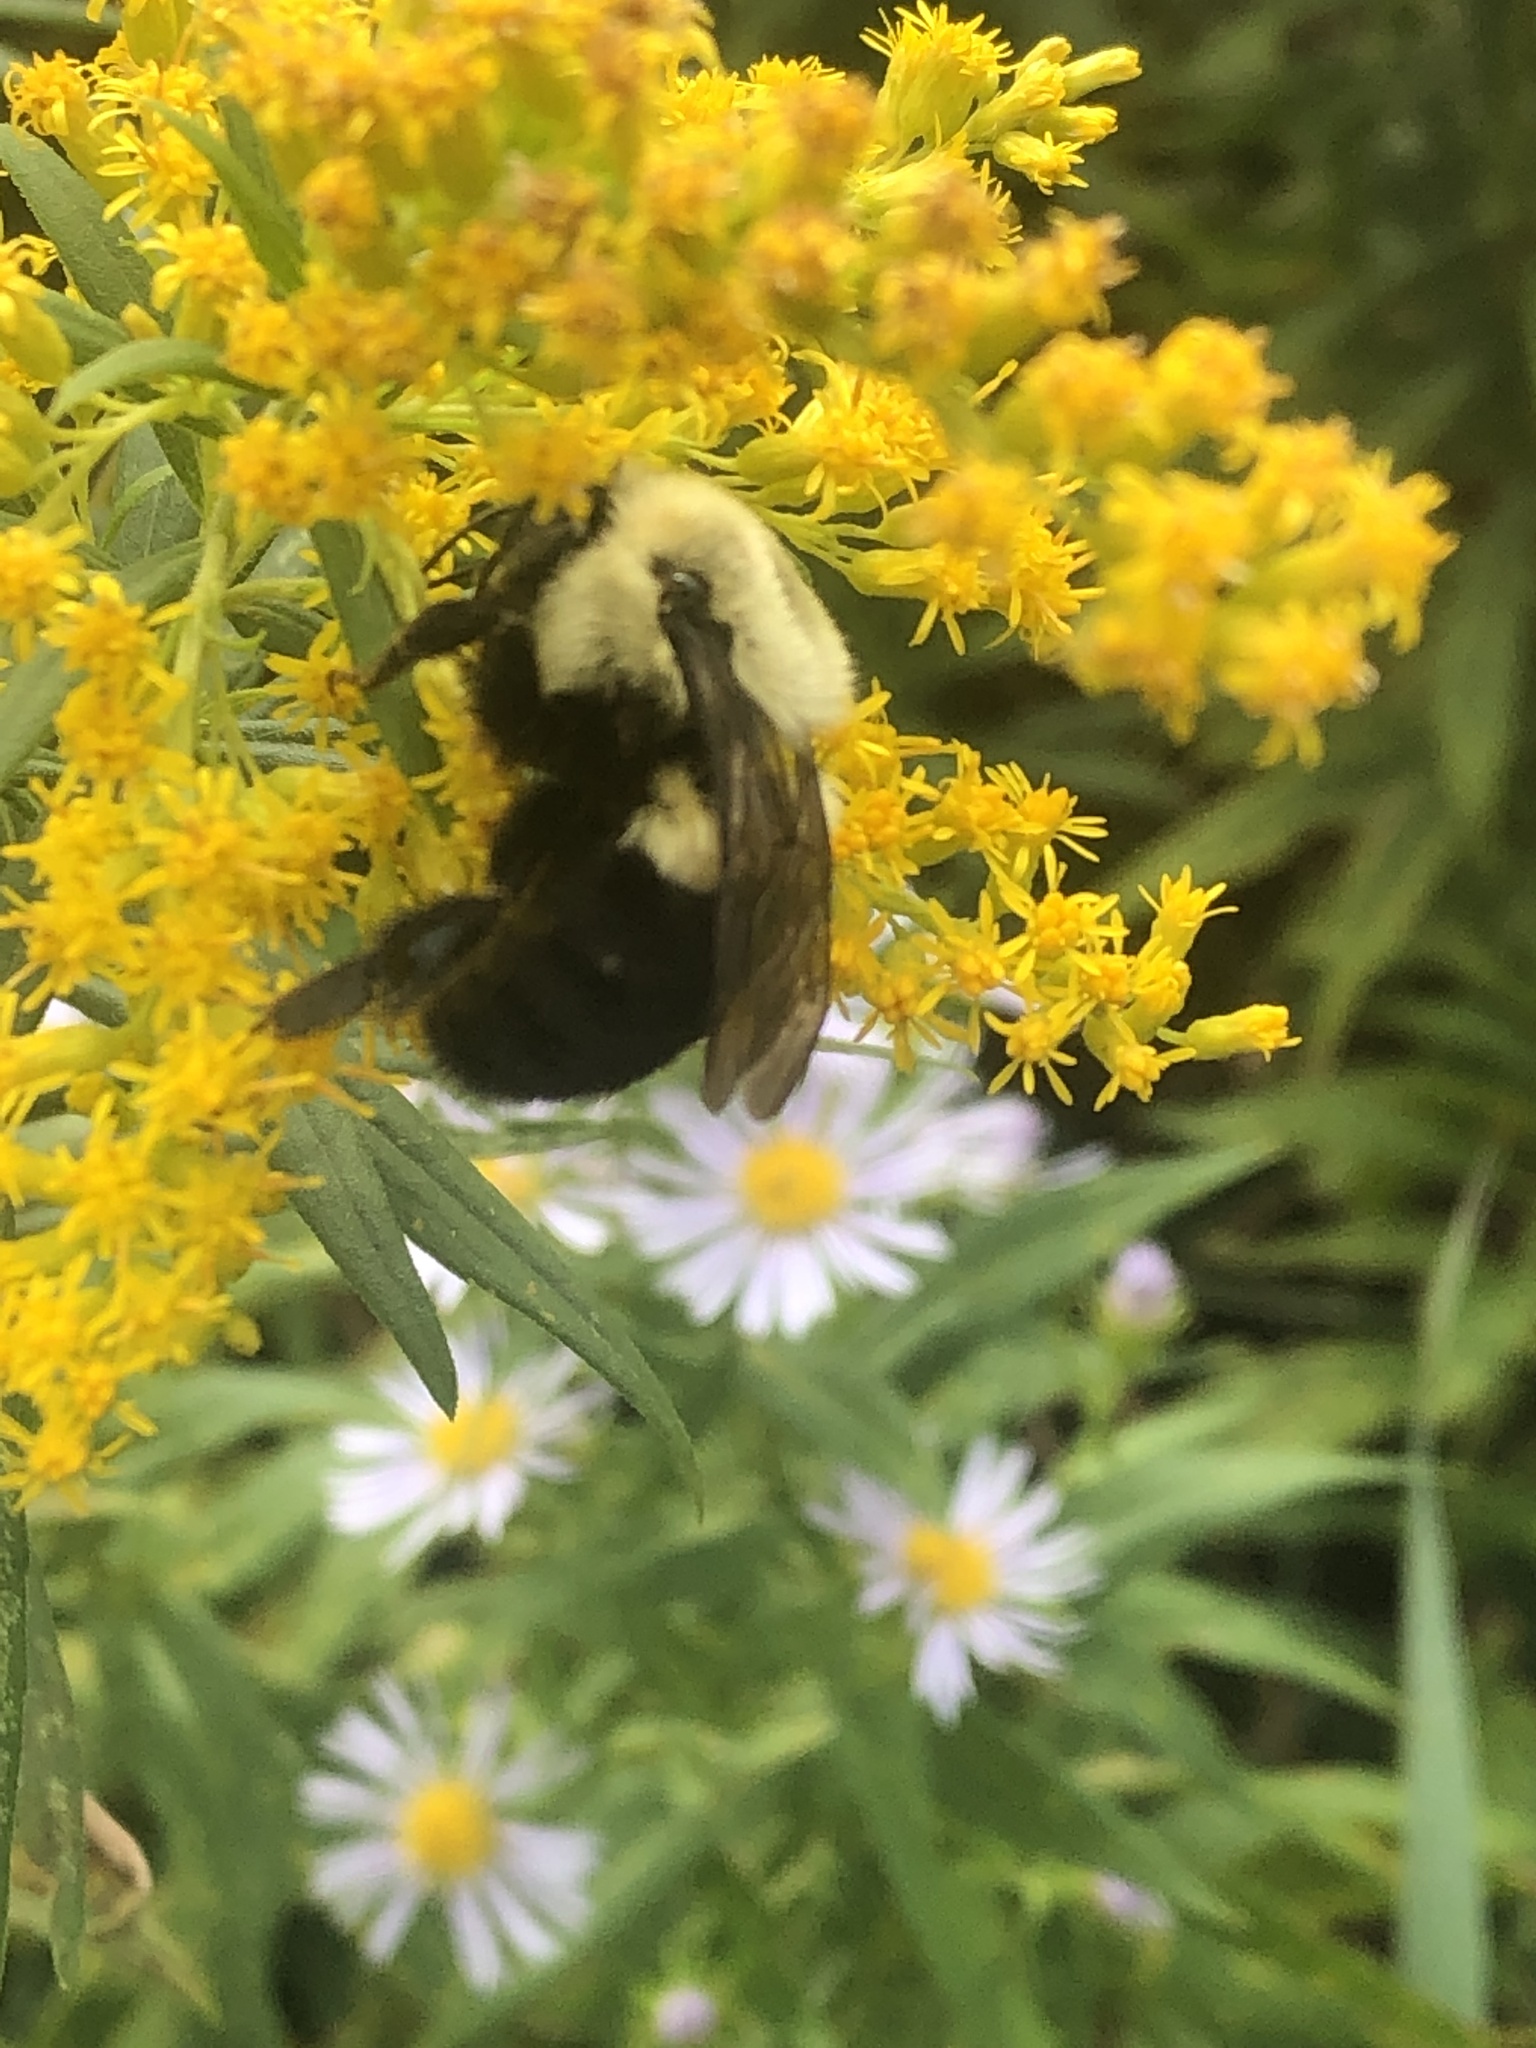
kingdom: Animalia
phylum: Arthropoda
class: Insecta
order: Hymenoptera
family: Apidae
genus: Bombus
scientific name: Bombus impatiens
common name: Common eastern bumble bee
